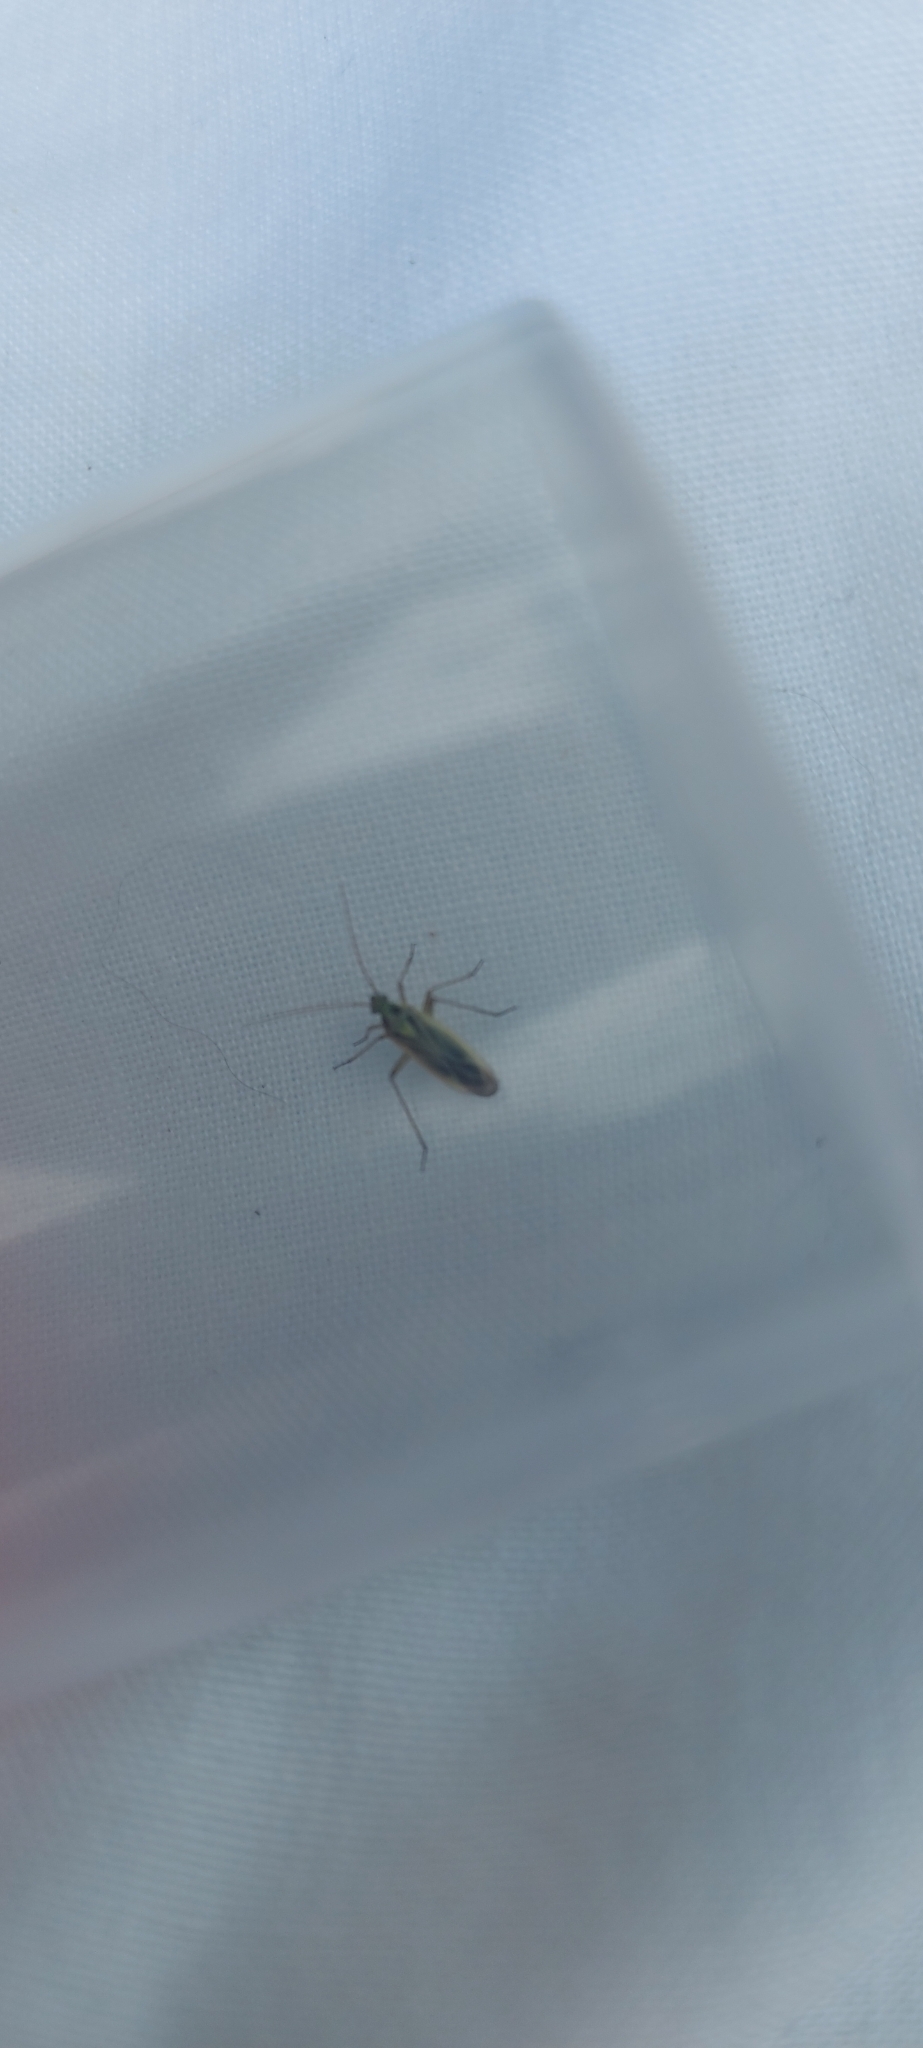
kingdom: Animalia
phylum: Arthropoda
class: Insecta
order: Hemiptera
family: Miridae
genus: Stenotus
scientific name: Stenotus binotatus
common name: Plant bug
